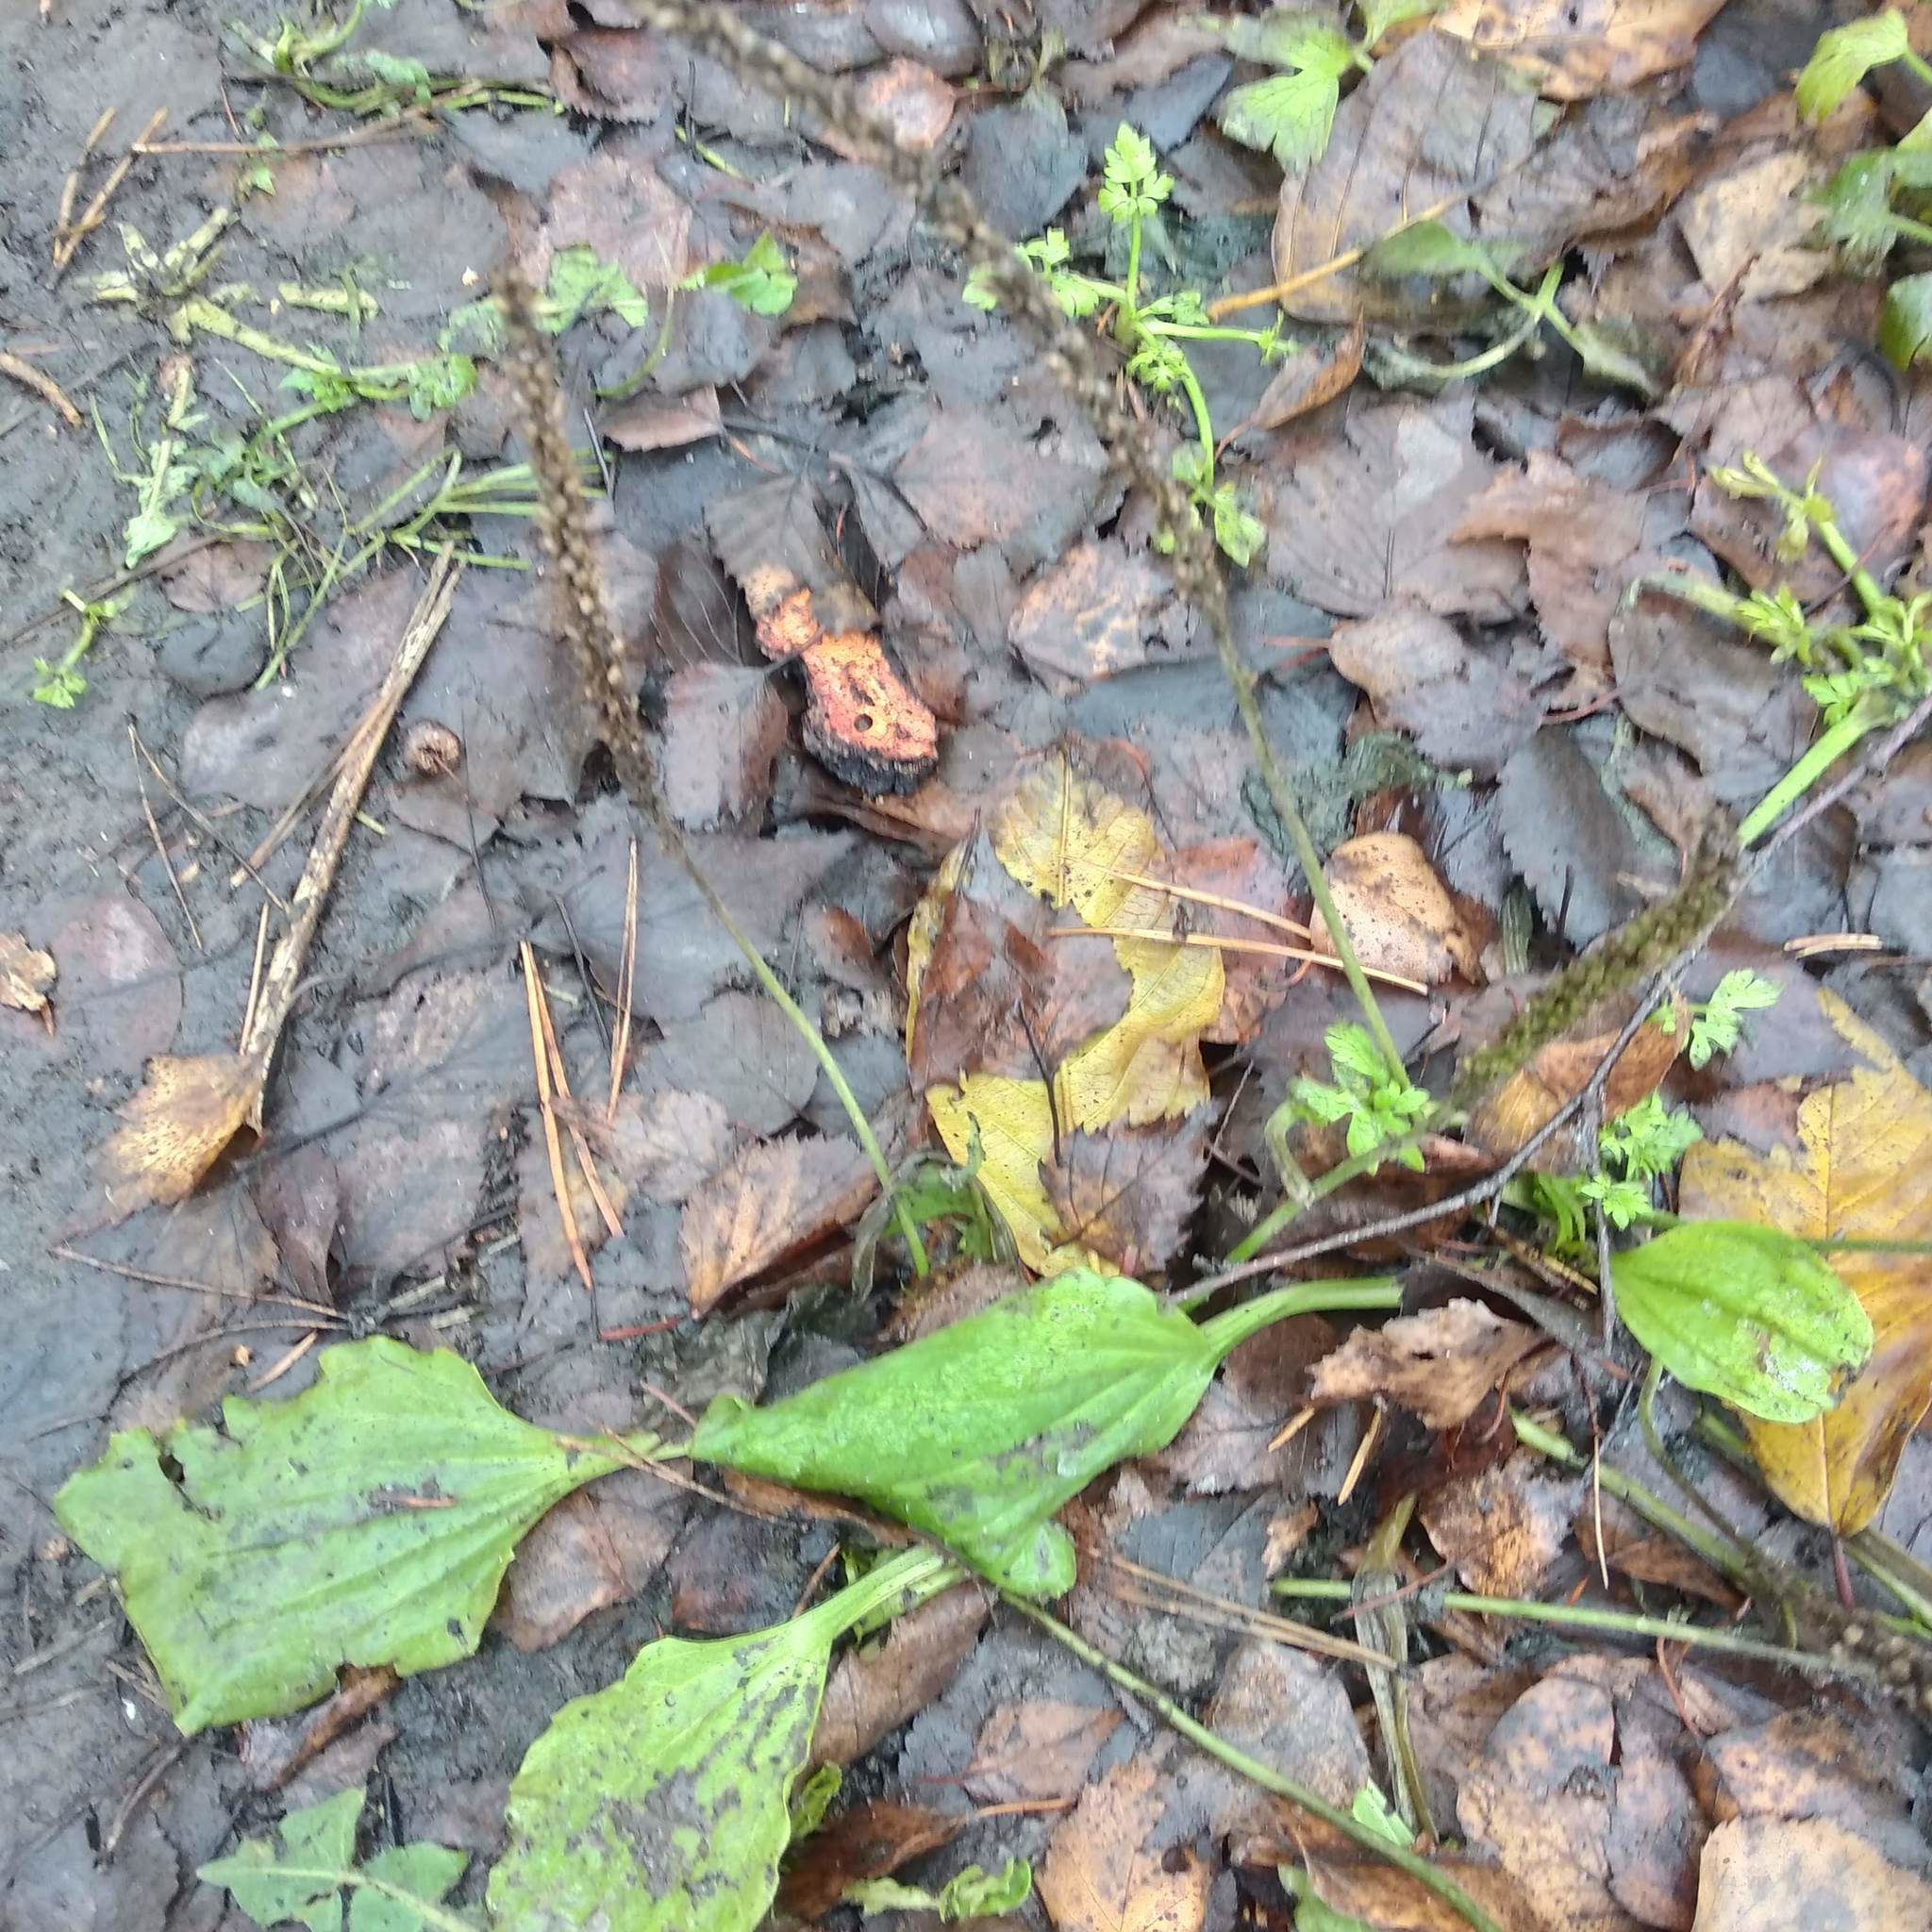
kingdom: Plantae
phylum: Tracheophyta
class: Magnoliopsida
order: Lamiales
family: Plantaginaceae
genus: Plantago
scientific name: Plantago major
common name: Common plantain
